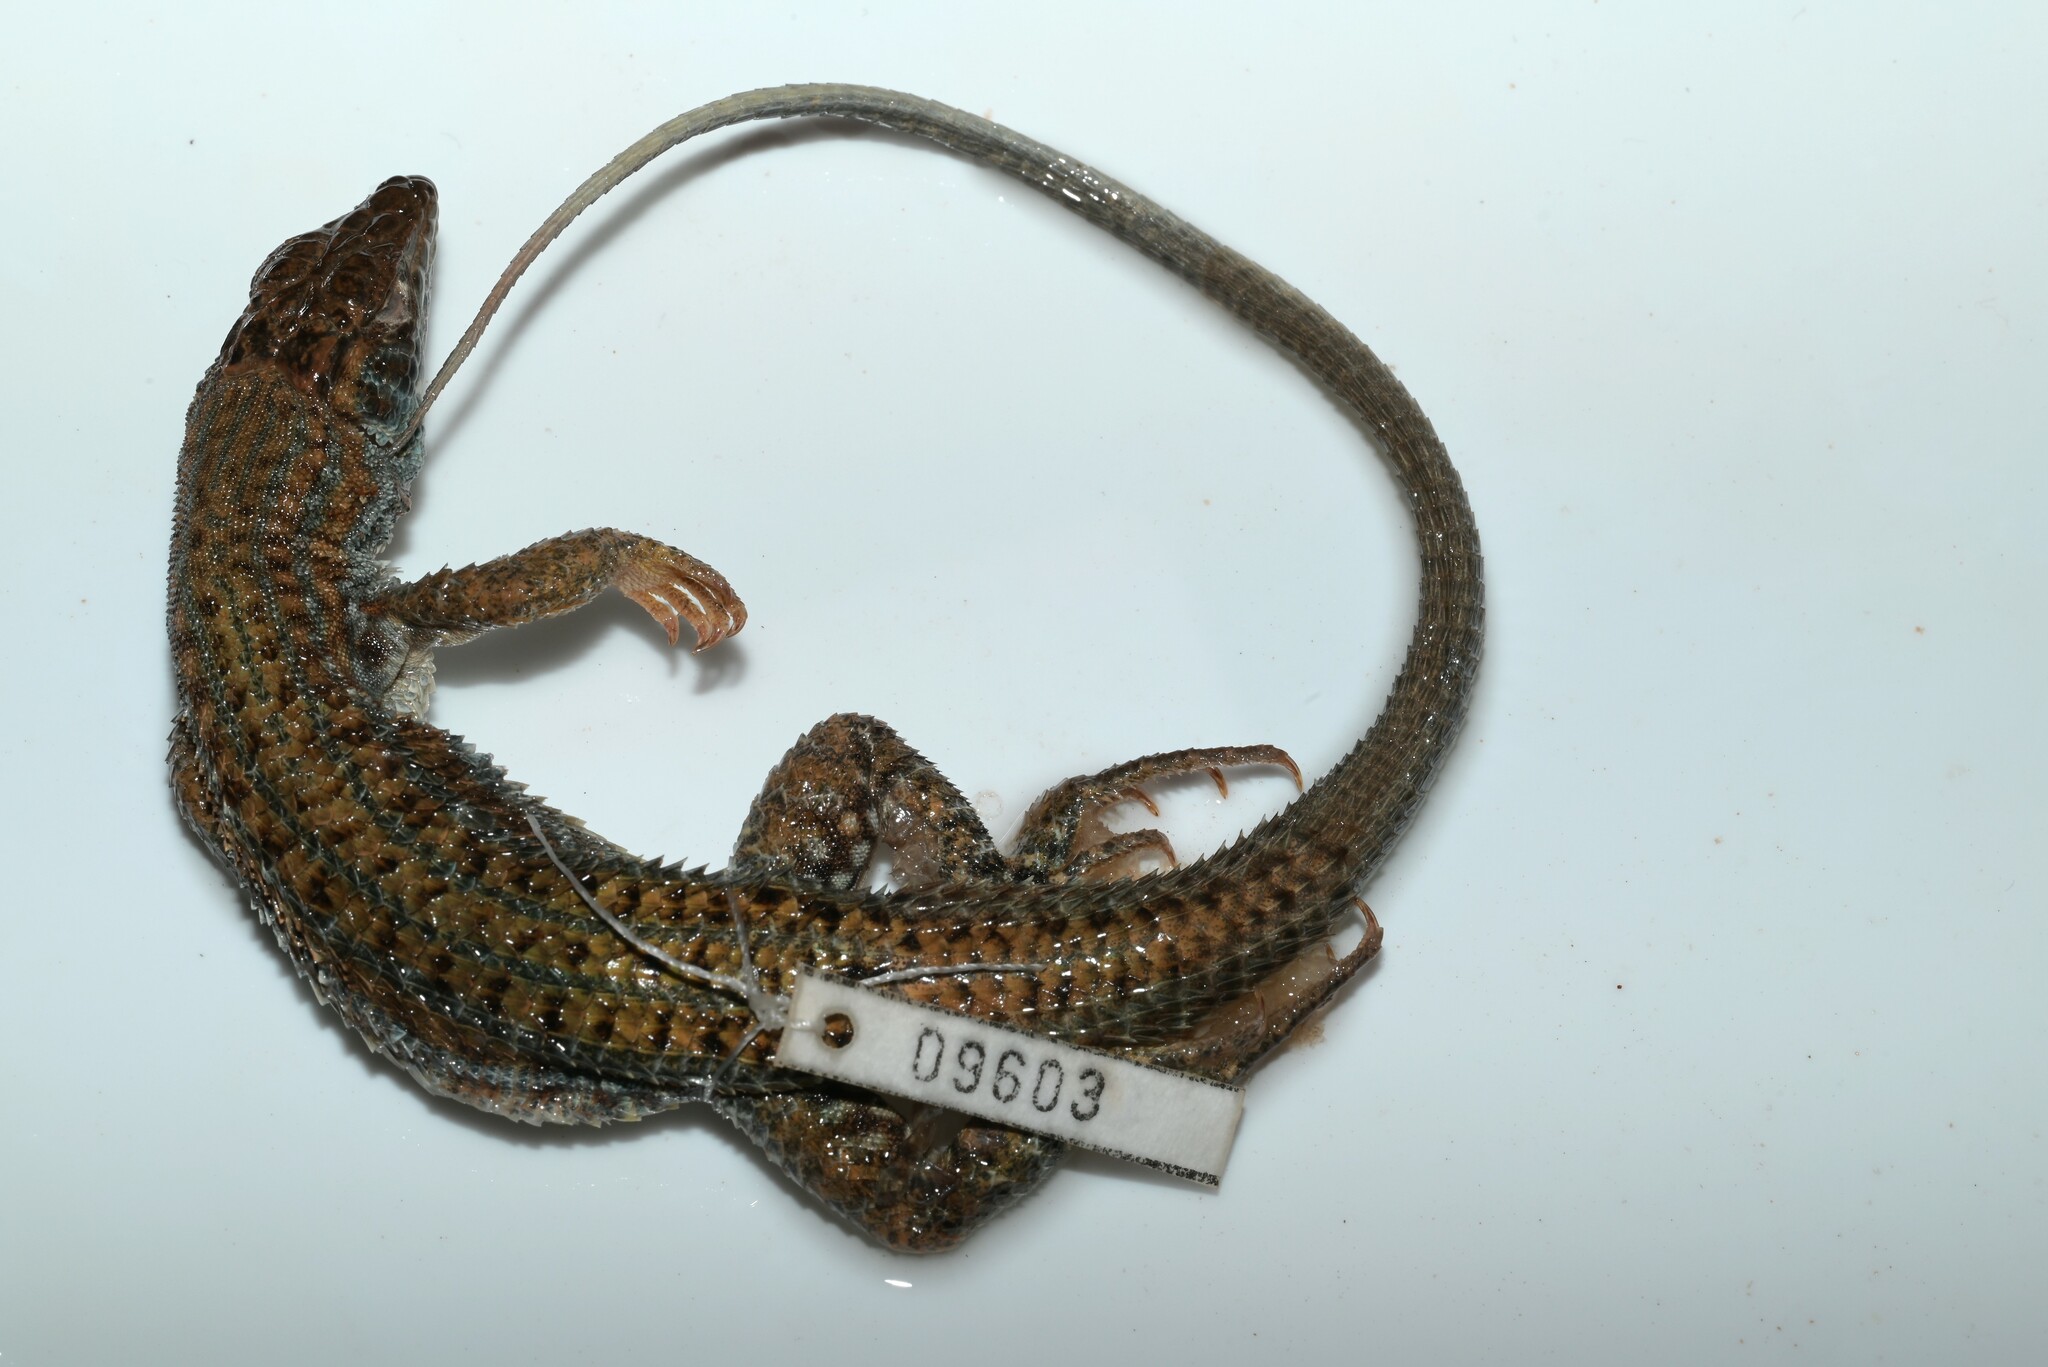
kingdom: Animalia
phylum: Chordata
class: Squamata
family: Lacertidae
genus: Acanthodactylus
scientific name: Acanthodactylus boskianus
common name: Bosc’s fringe-toed lizard
